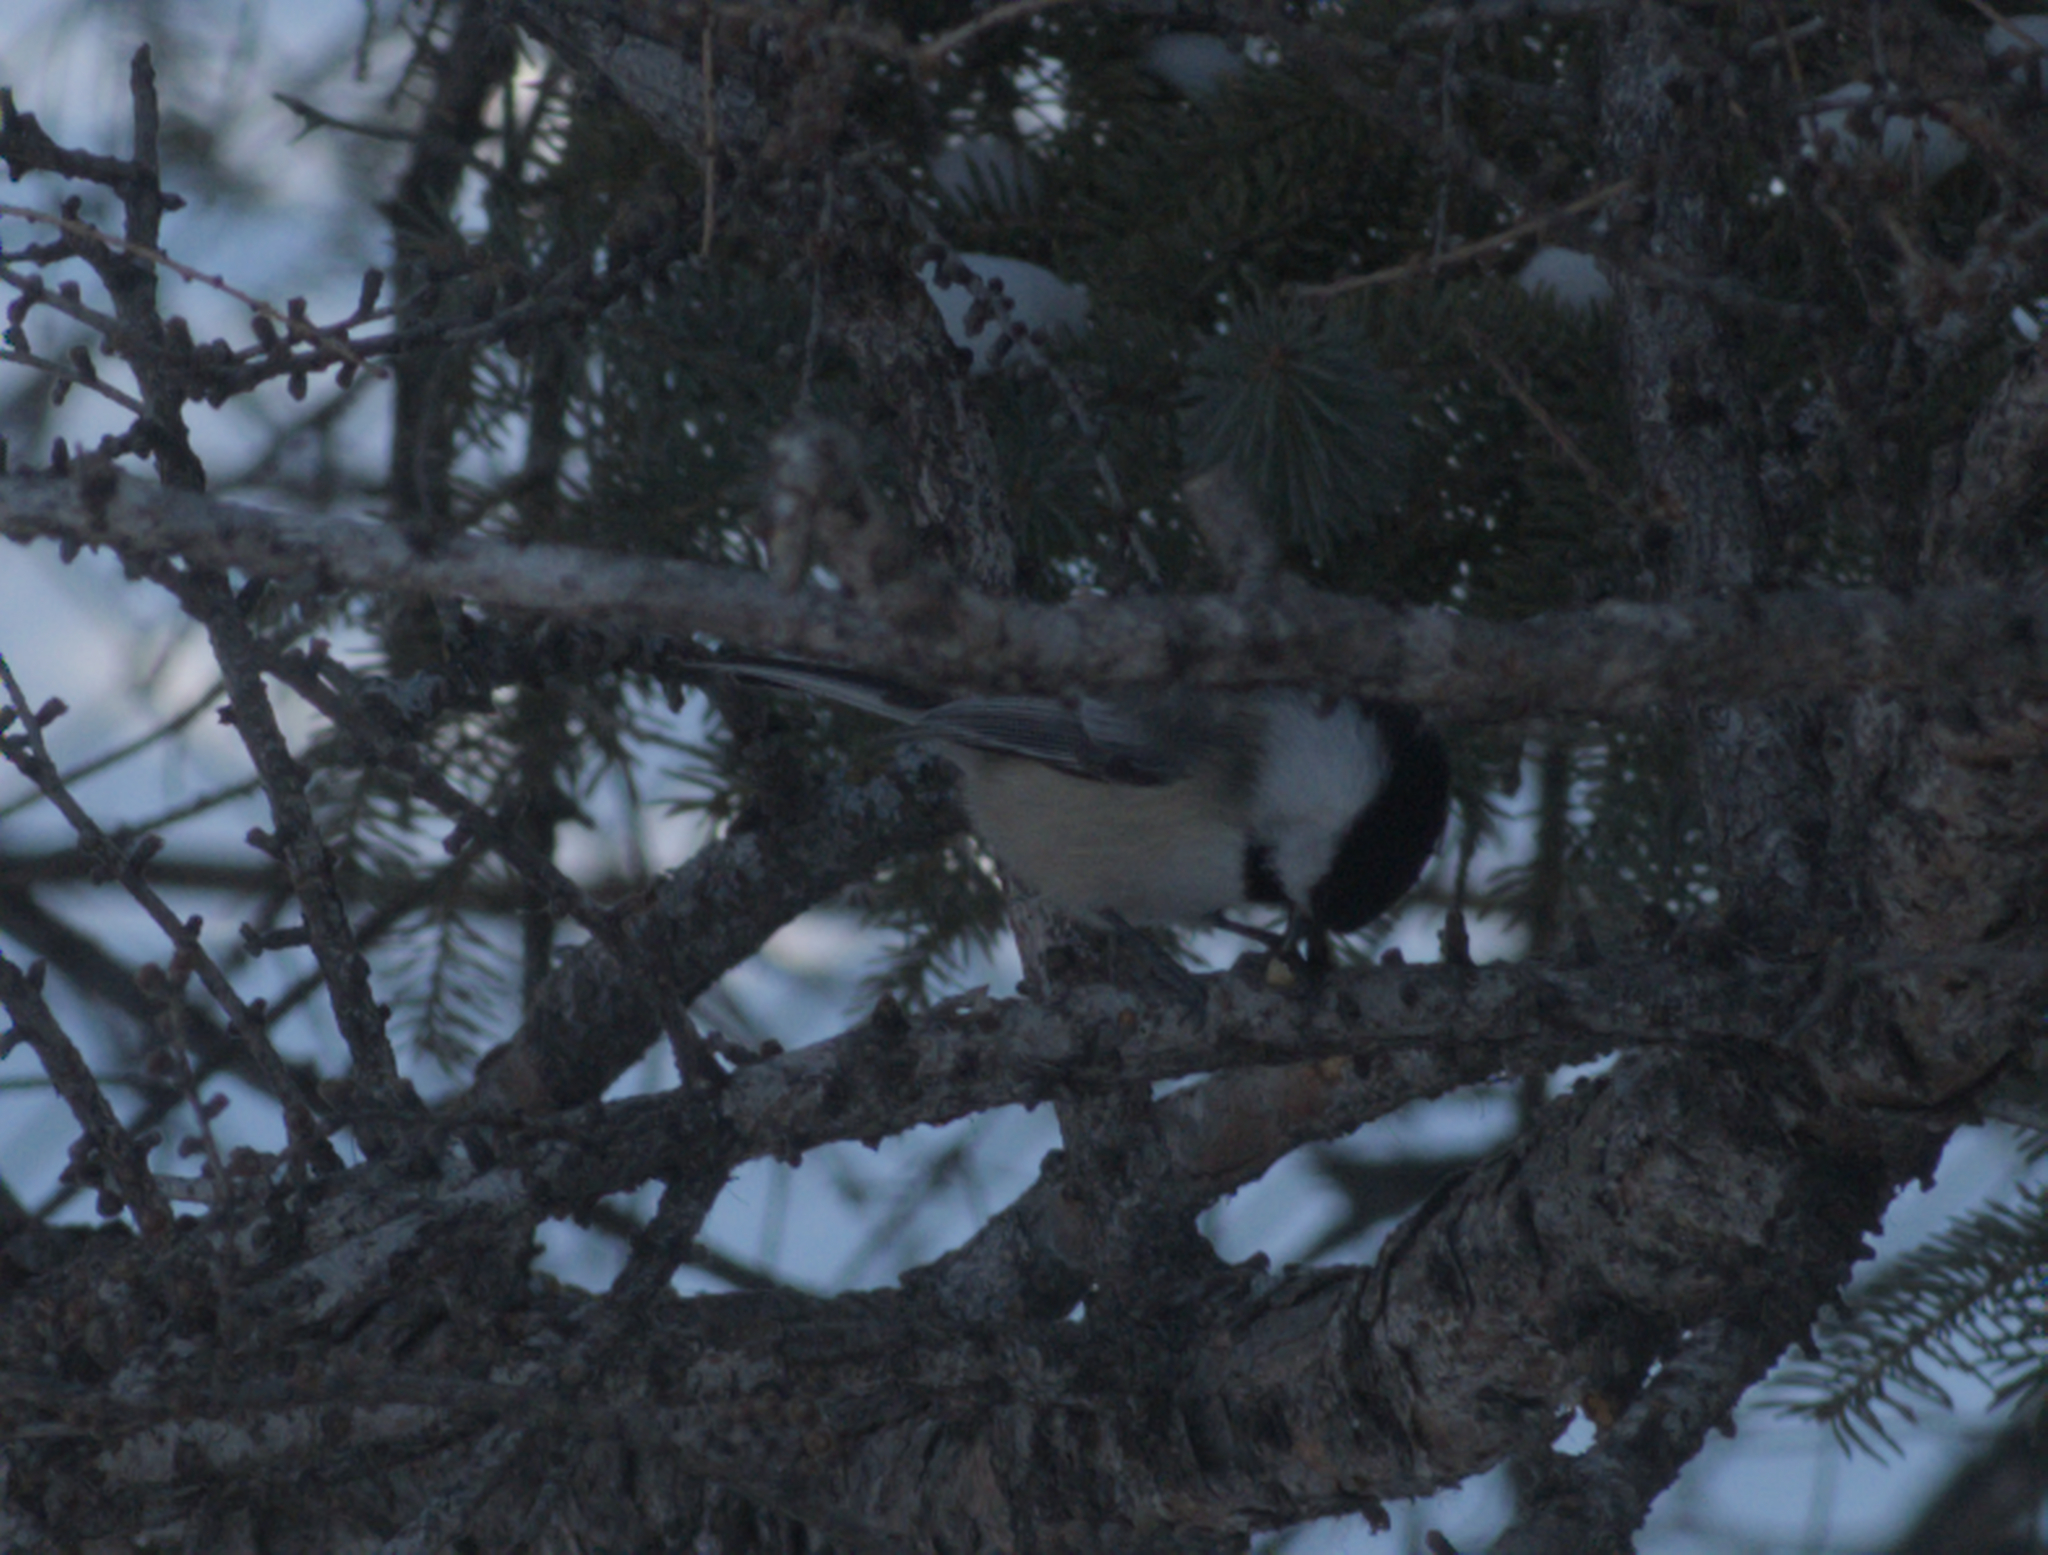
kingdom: Animalia
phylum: Chordata
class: Aves
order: Passeriformes
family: Paridae
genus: Poecile
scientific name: Poecile atricapillus
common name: Black-capped chickadee
